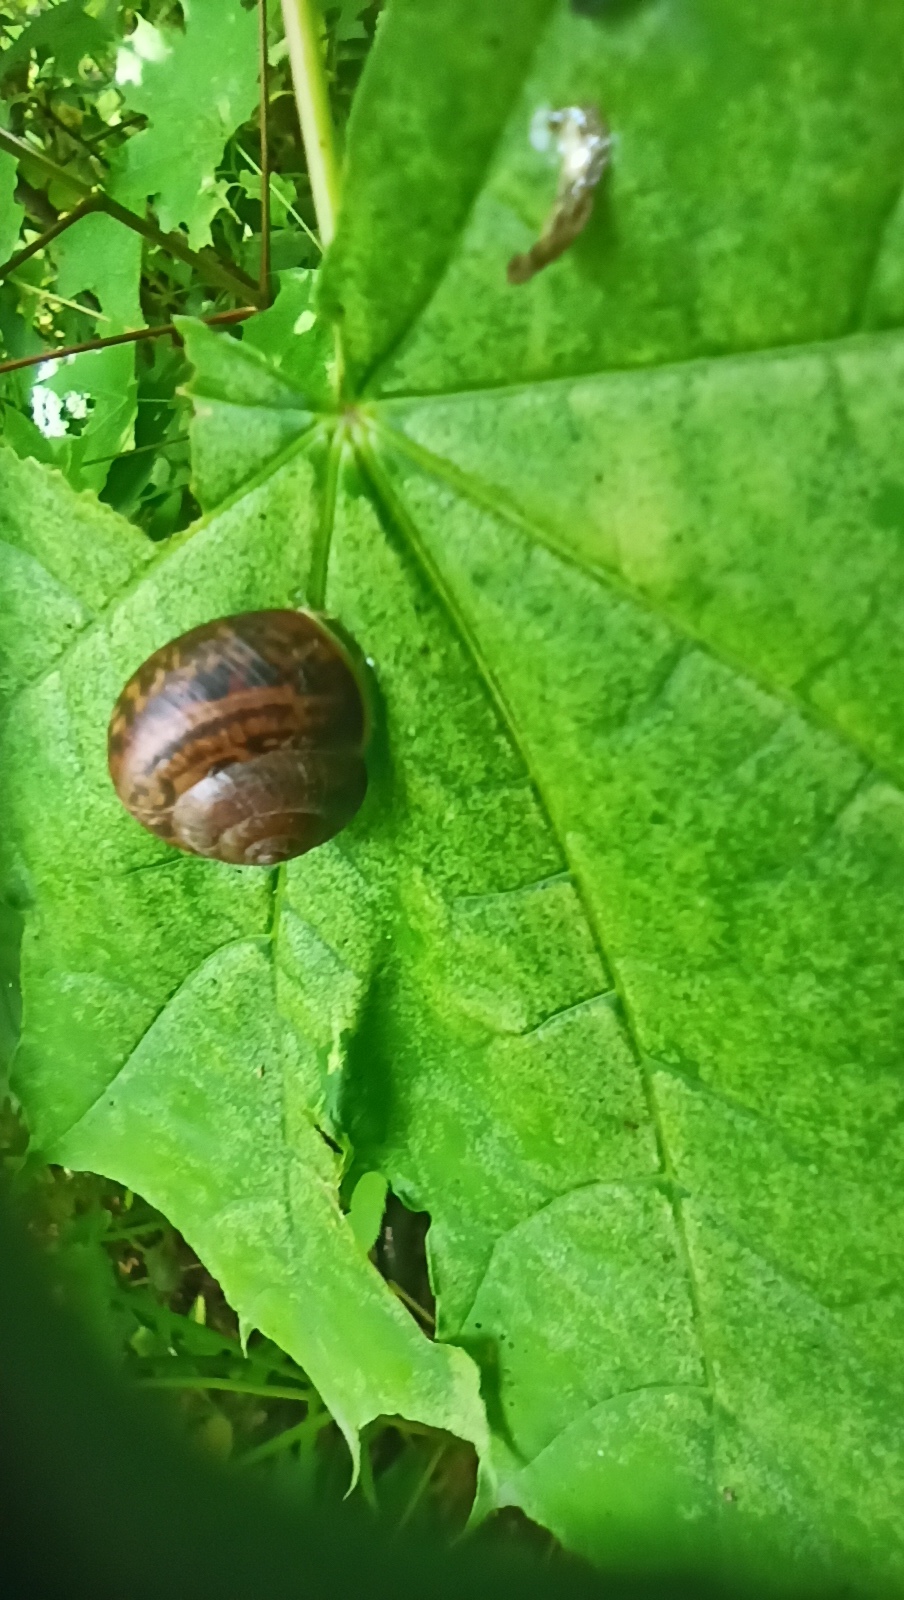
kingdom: Animalia
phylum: Mollusca
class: Gastropoda
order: Stylommatophora
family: Camaenidae
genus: Fruticicola
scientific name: Fruticicola fruticum
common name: Bush snail
